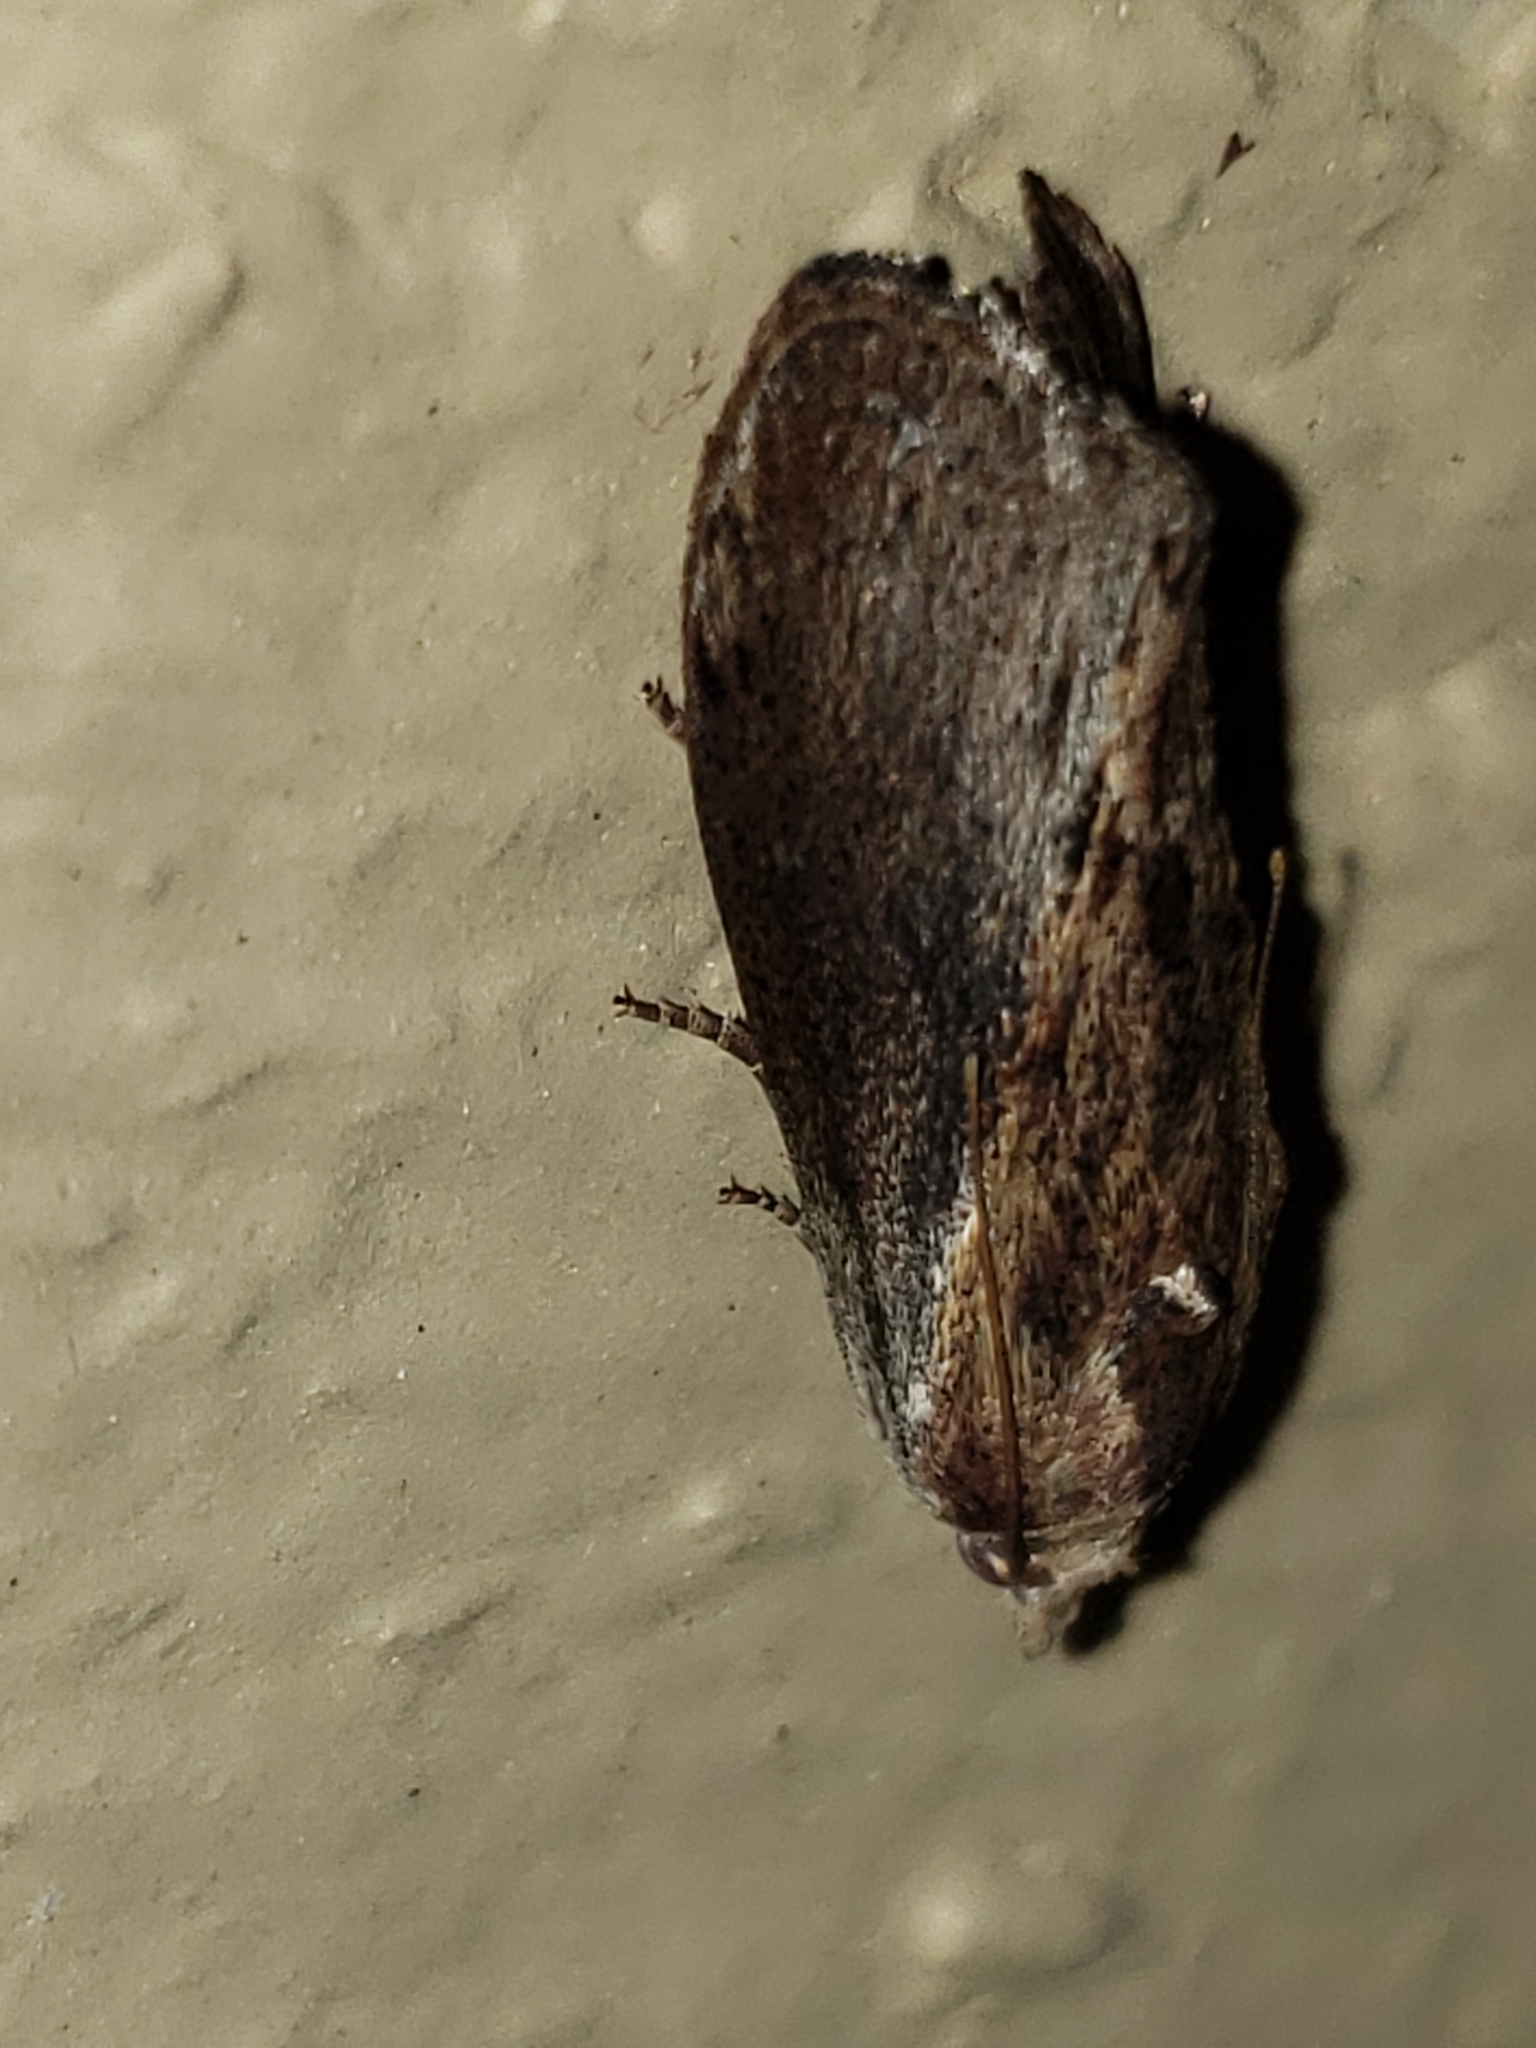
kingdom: Animalia
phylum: Arthropoda
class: Insecta
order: Lepidoptera
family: Pyralidae
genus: Galleria
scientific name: Galleria mellonella
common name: Greater wax moth
